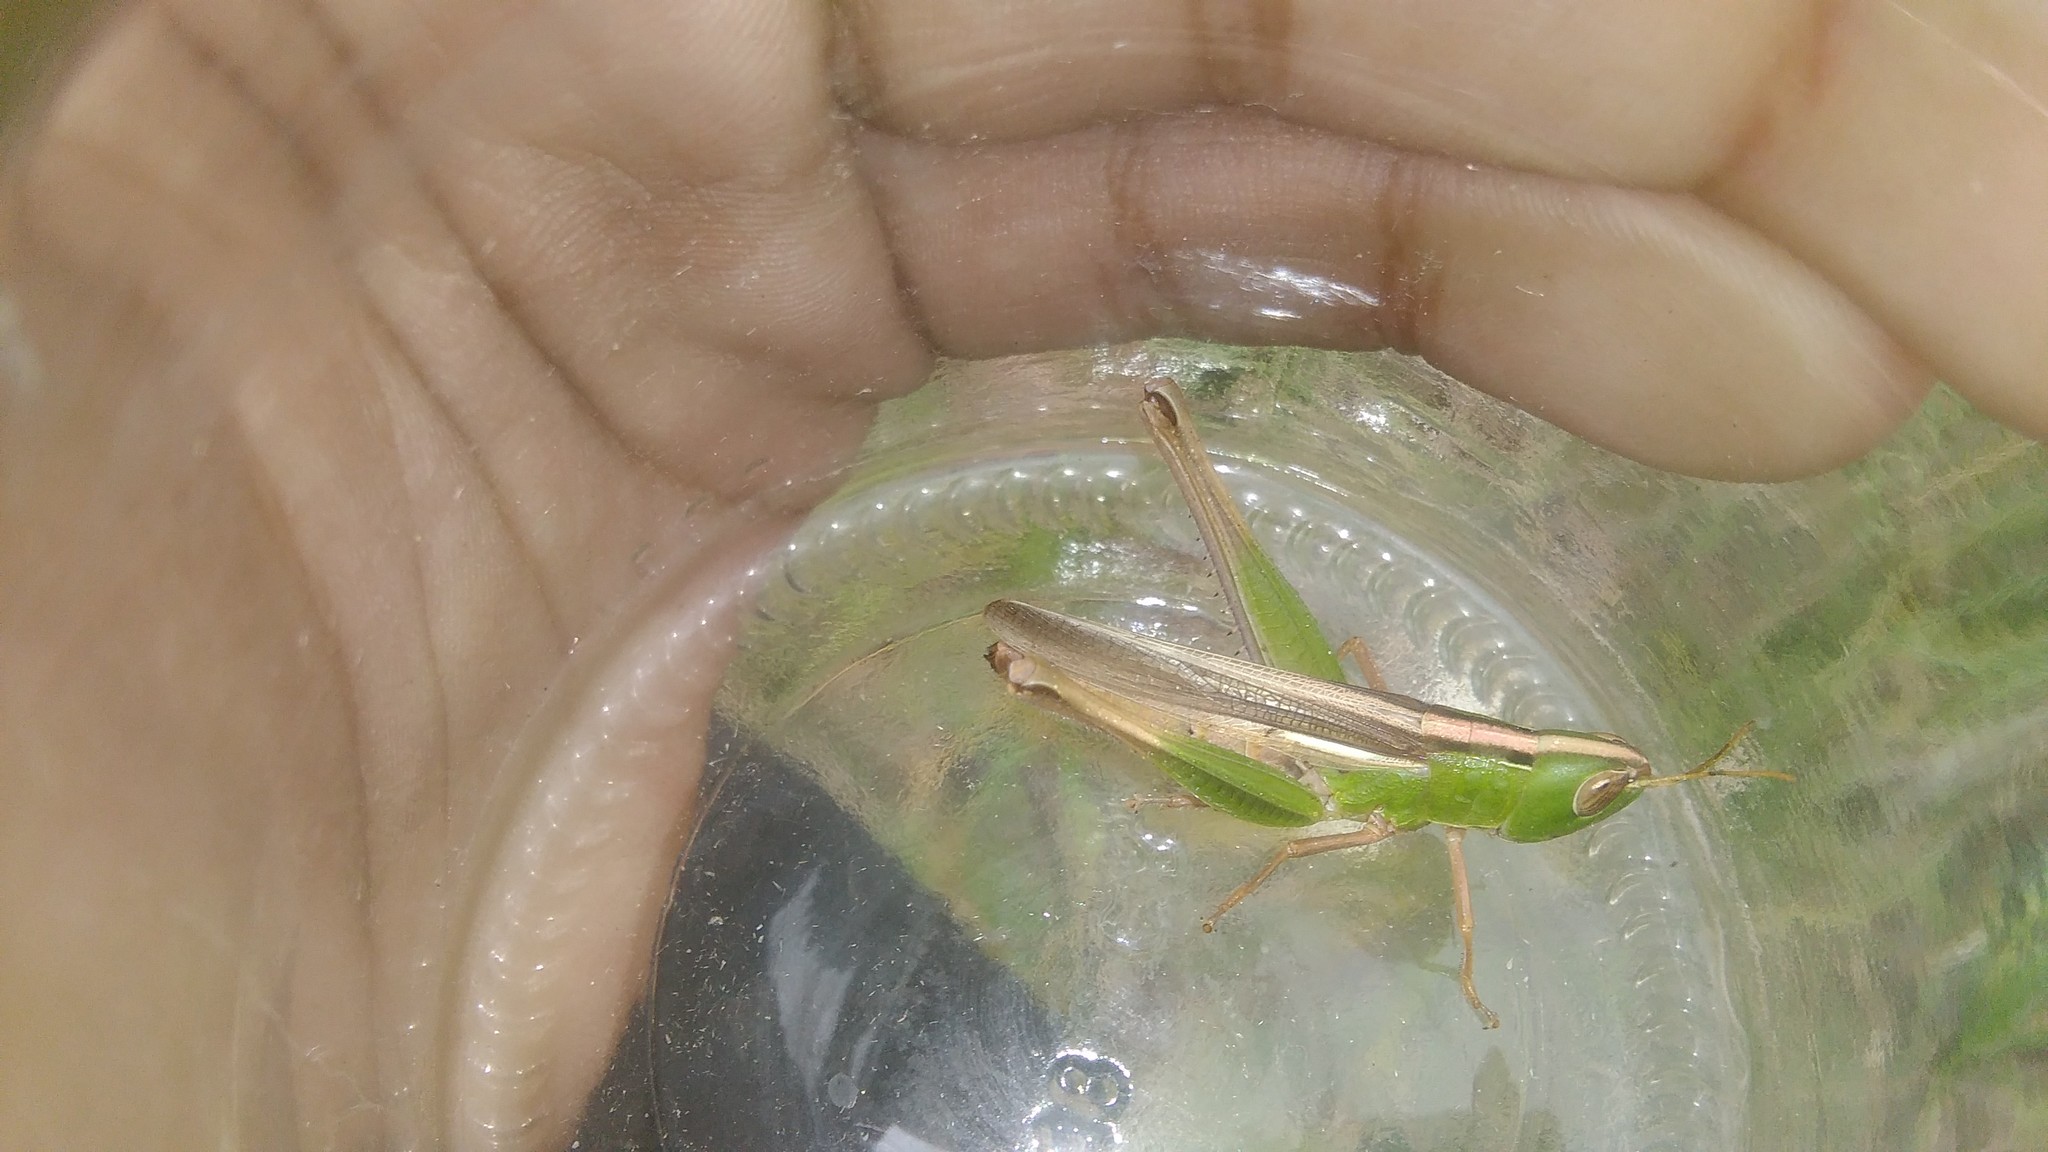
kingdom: Animalia
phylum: Arthropoda
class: Insecta
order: Orthoptera
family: Acrididae
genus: Staurorhectus
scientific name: Staurorhectus longicornis
